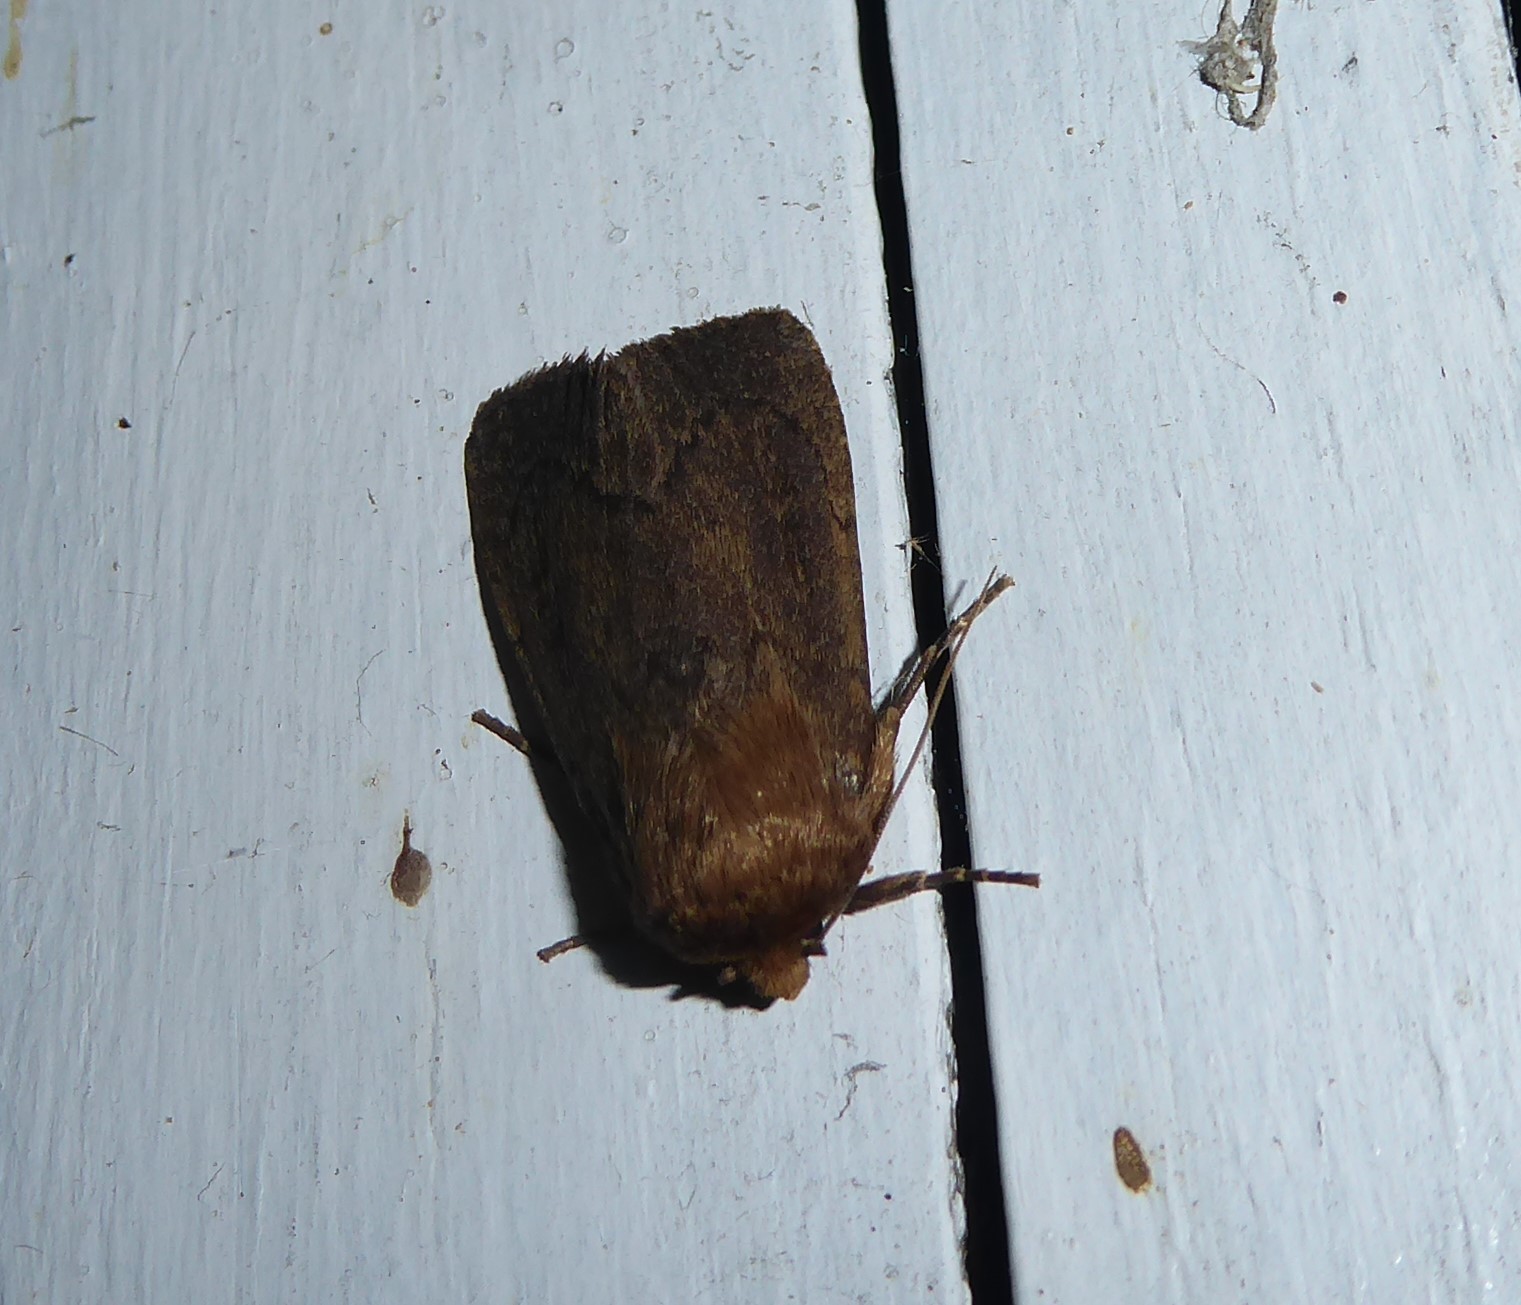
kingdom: Animalia
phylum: Arthropoda
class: Insecta
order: Lepidoptera
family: Noctuidae
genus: Bityla
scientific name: Bityla defigurata
